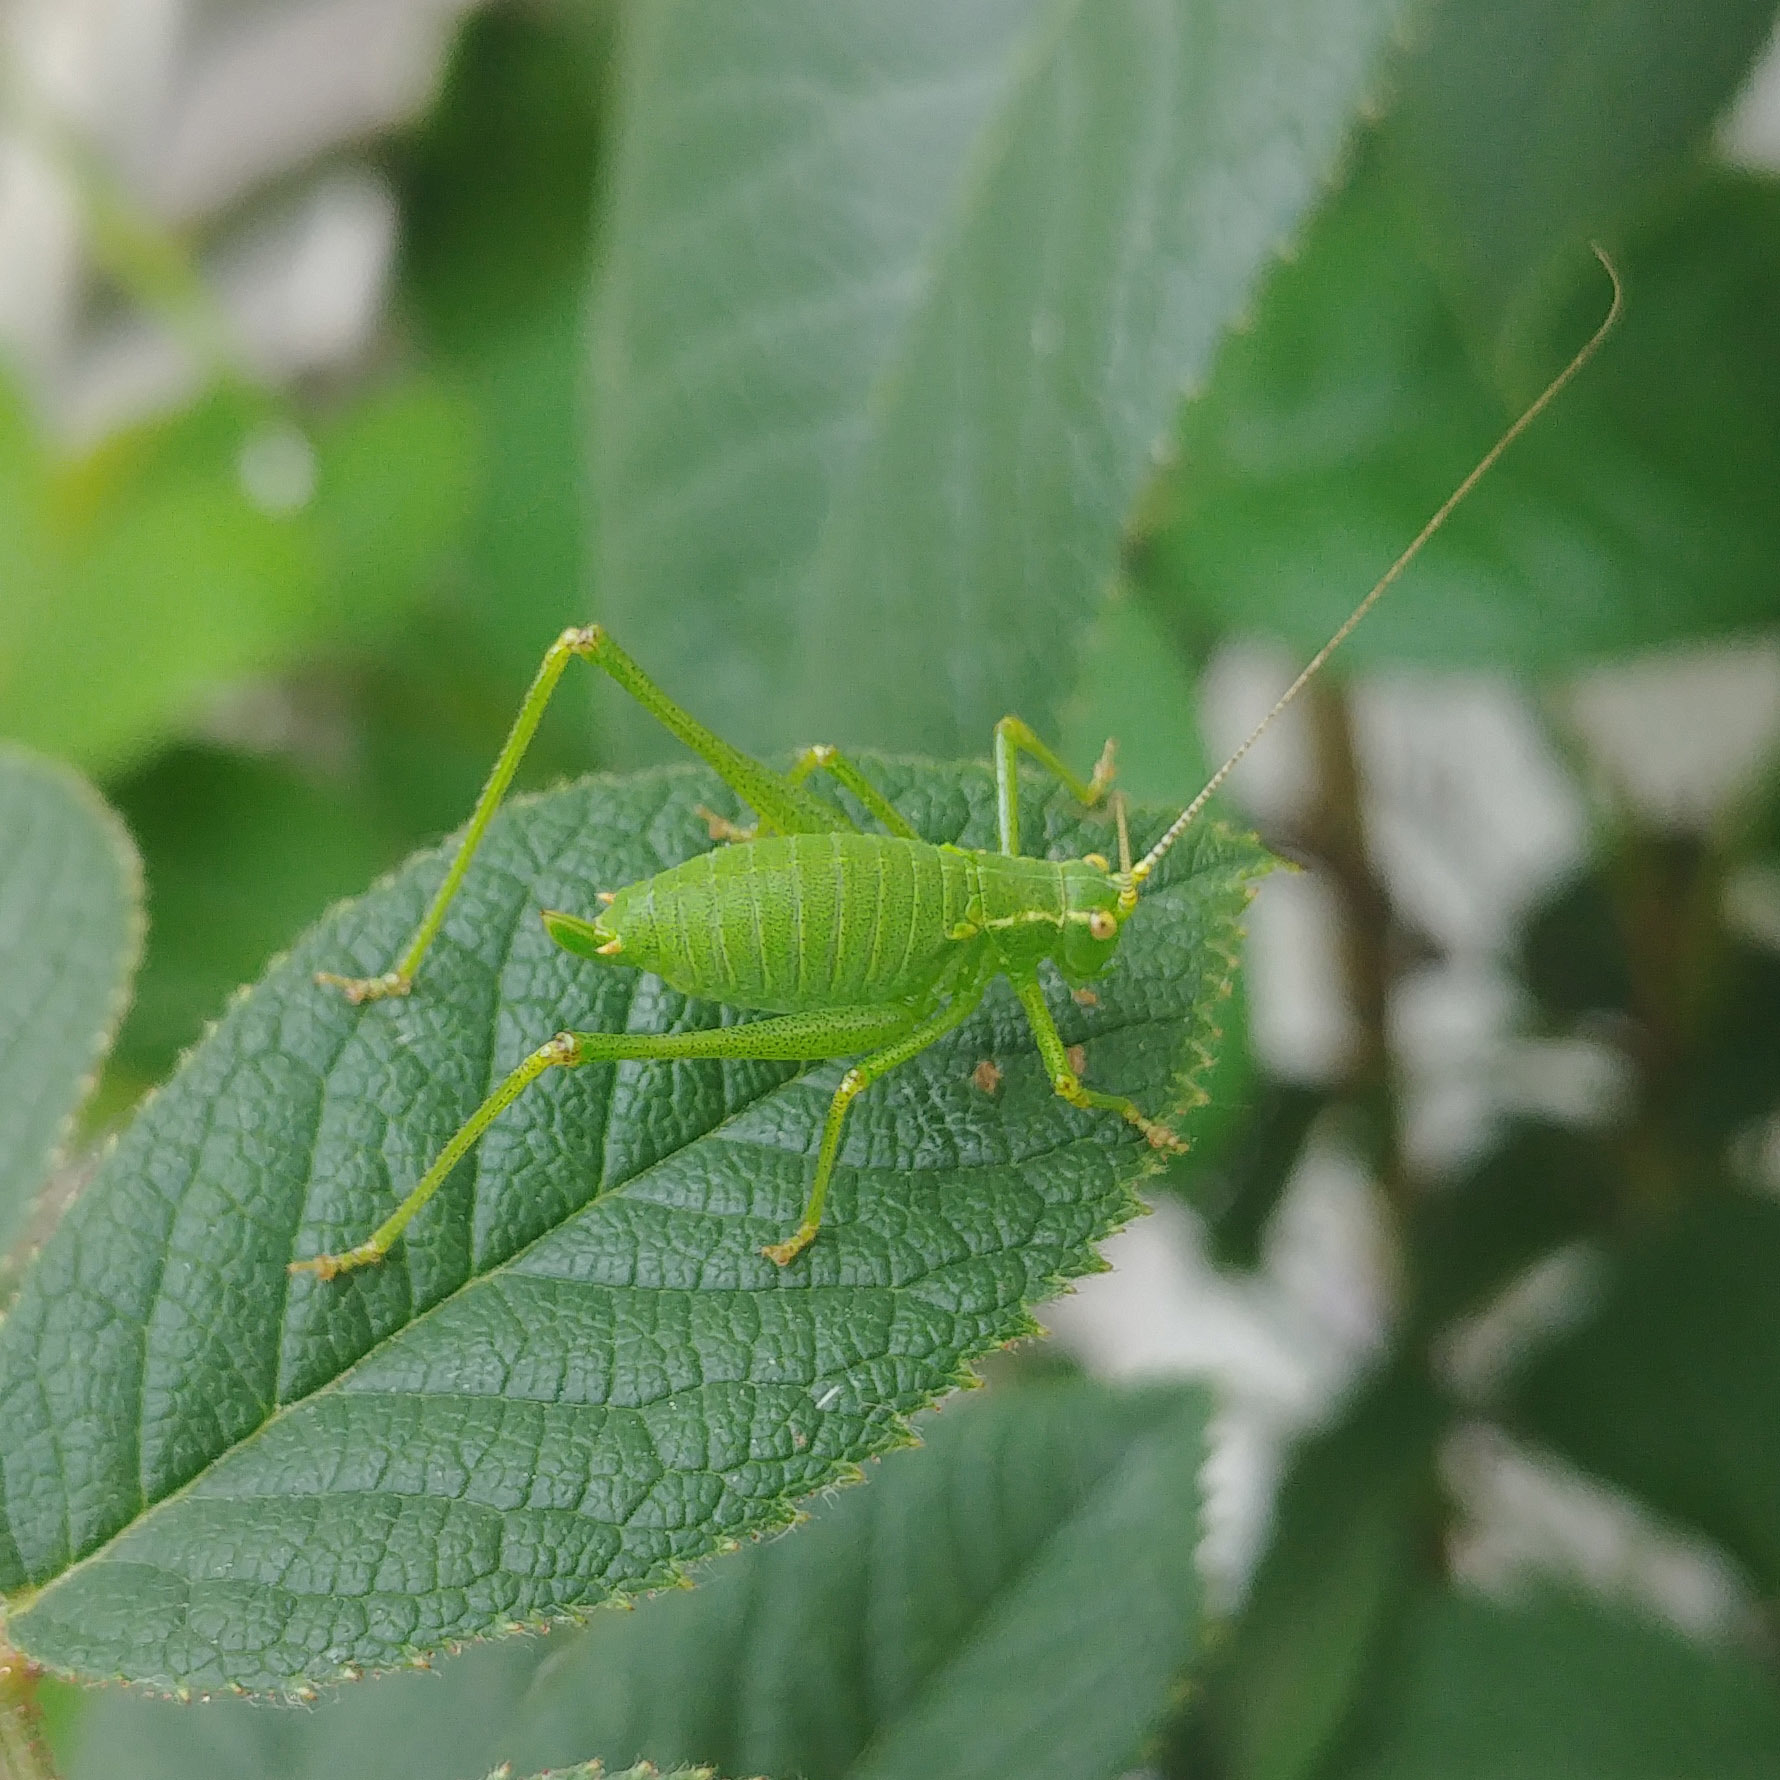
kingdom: Animalia
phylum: Arthropoda
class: Insecta
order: Orthoptera
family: Tettigoniidae
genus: Leptophyes
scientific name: Leptophyes punctatissima
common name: Speckled bush-cricket
